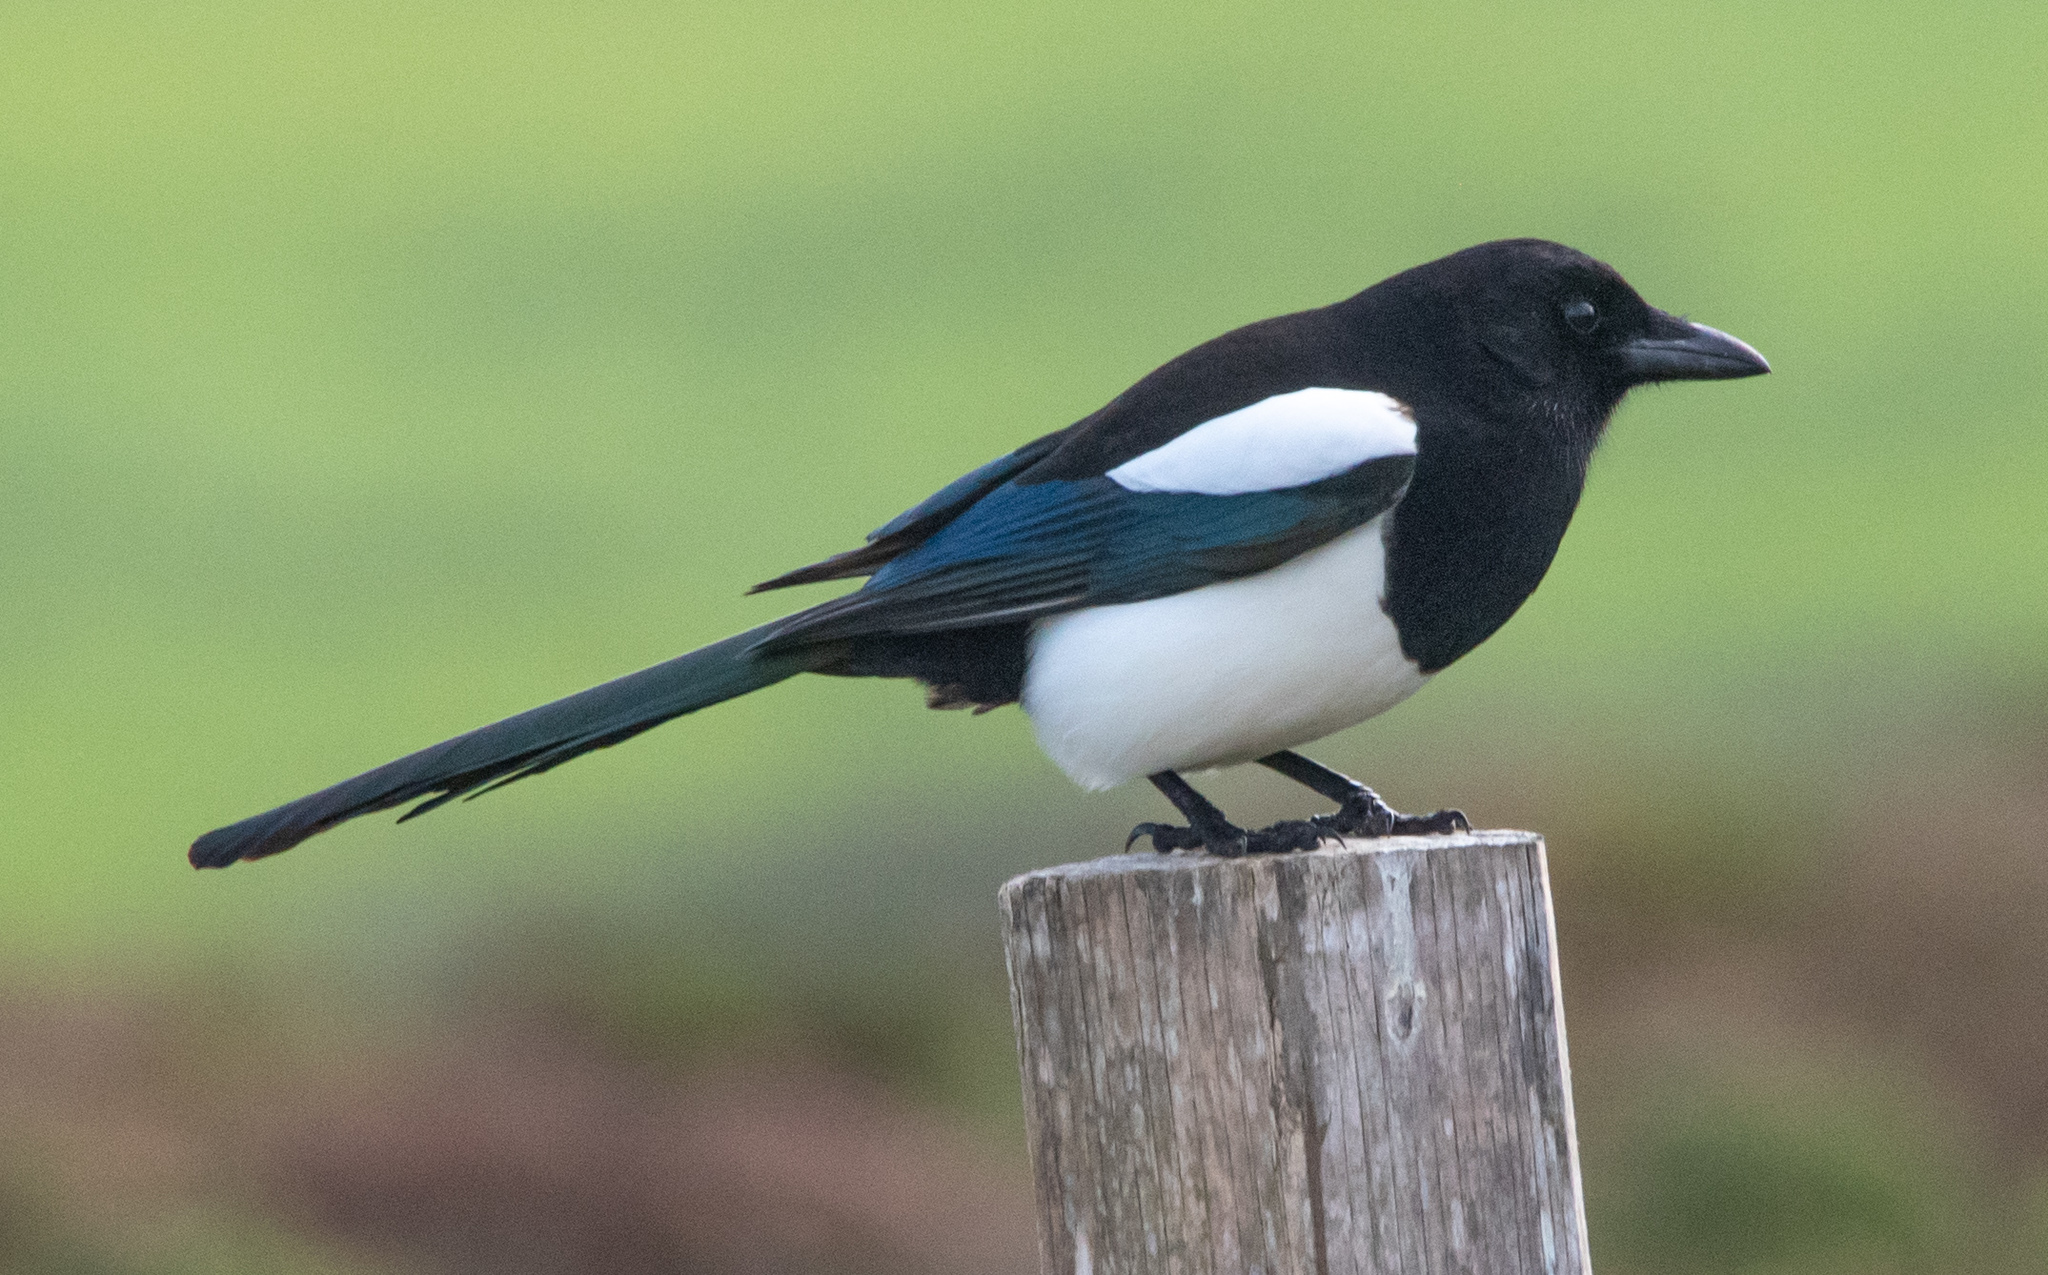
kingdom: Animalia
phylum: Chordata
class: Aves
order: Passeriformes
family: Corvidae
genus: Pica
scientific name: Pica pica
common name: Eurasian magpie
